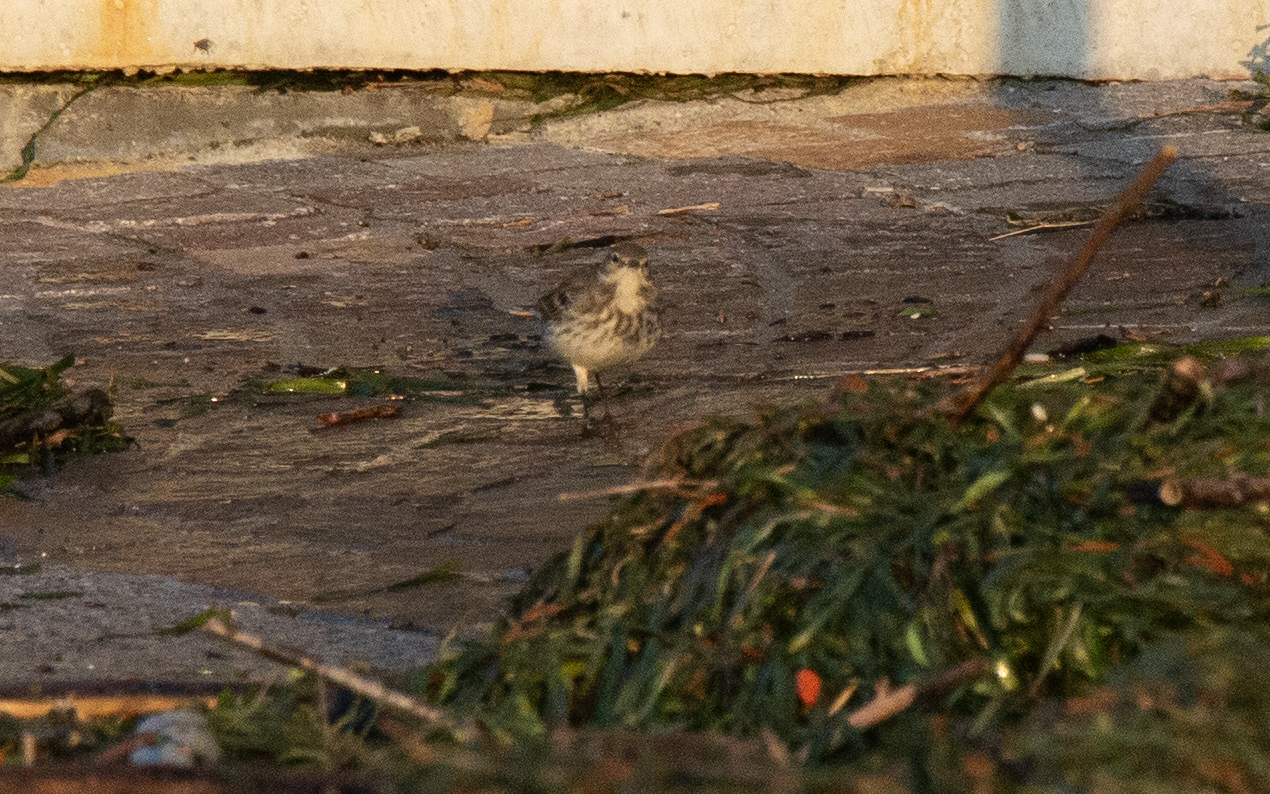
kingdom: Animalia
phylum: Chordata
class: Aves
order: Passeriformes
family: Motacillidae
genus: Anthus
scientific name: Anthus spinoletta
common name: Water pipit
